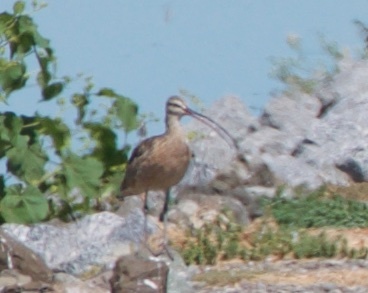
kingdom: Animalia
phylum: Chordata
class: Aves
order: Charadriiformes
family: Scolopacidae
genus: Numenius
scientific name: Numenius americanus
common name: Long-billed curlew
